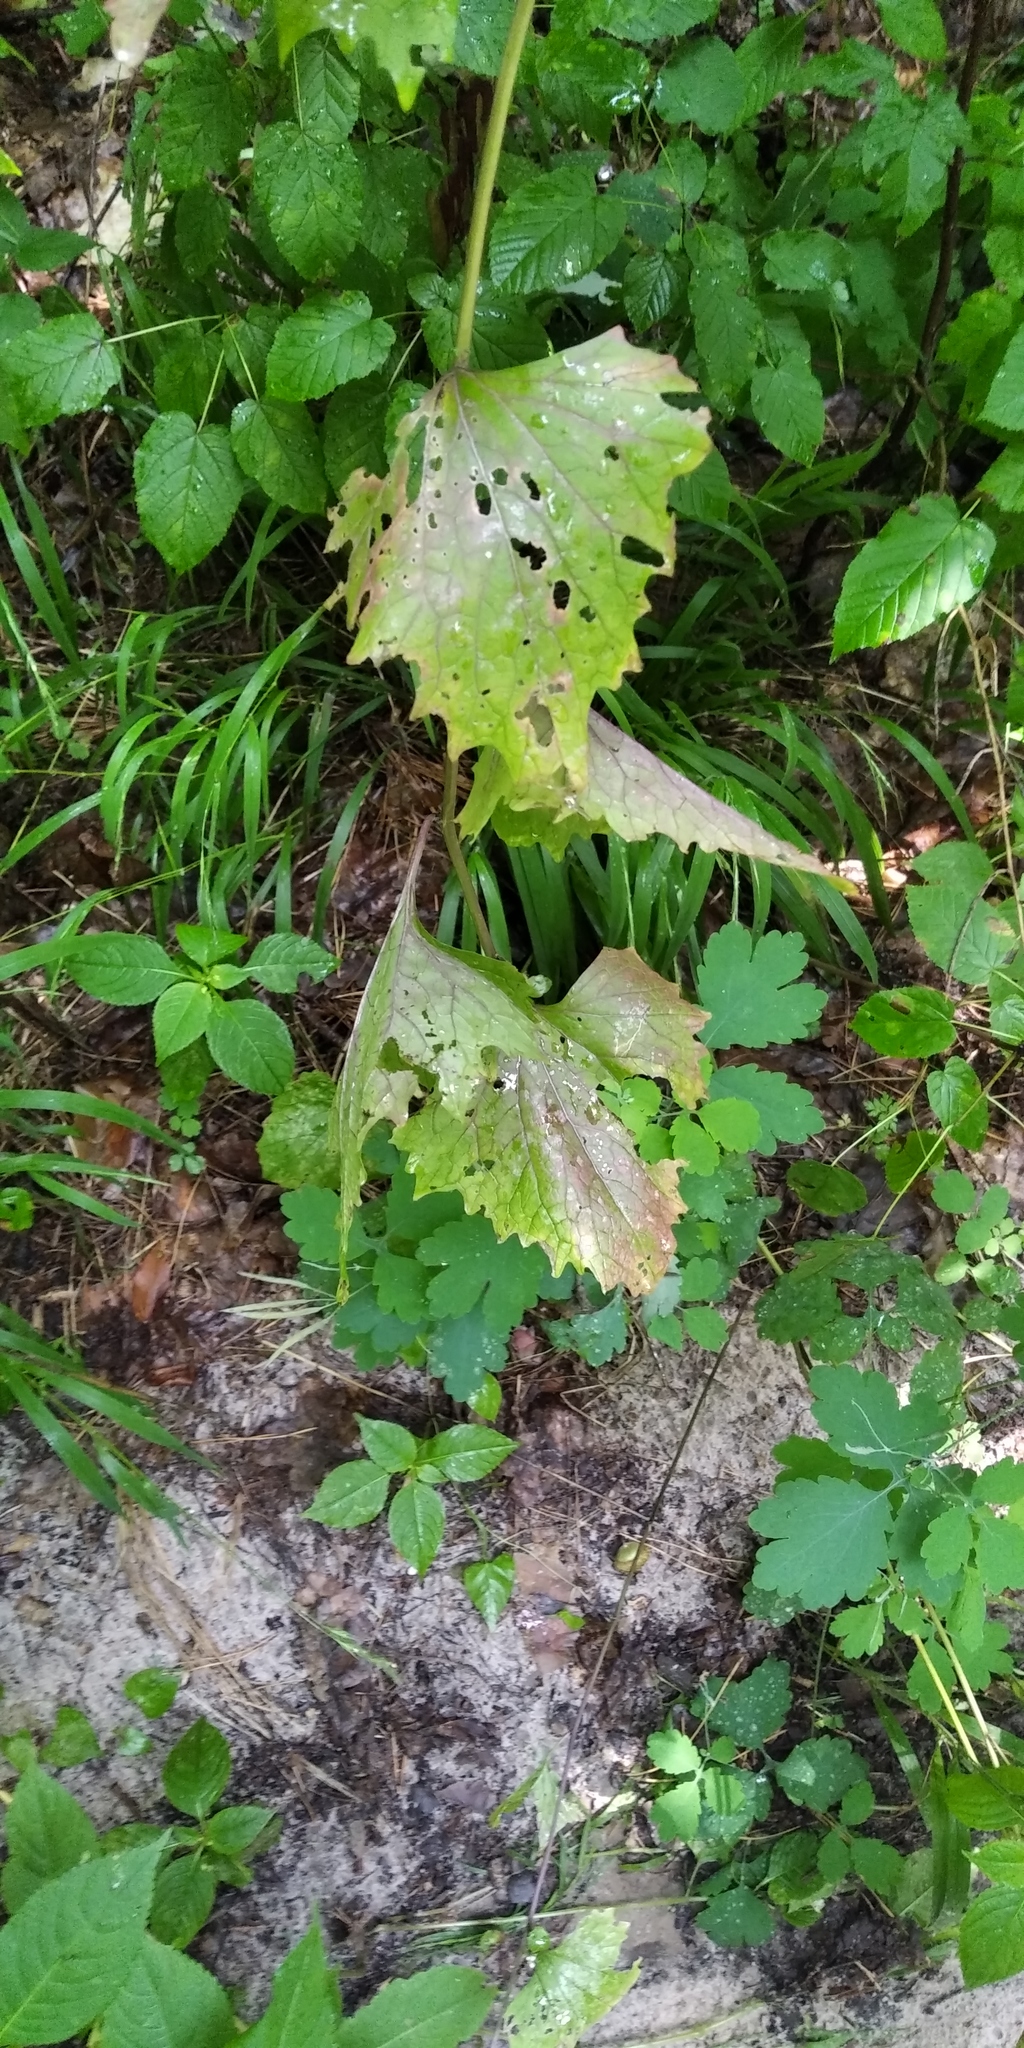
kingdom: Plantae
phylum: Tracheophyta
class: Magnoliopsida
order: Brassicales
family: Brassicaceae
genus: Alliaria
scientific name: Alliaria petiolata
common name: Garlic mustard
